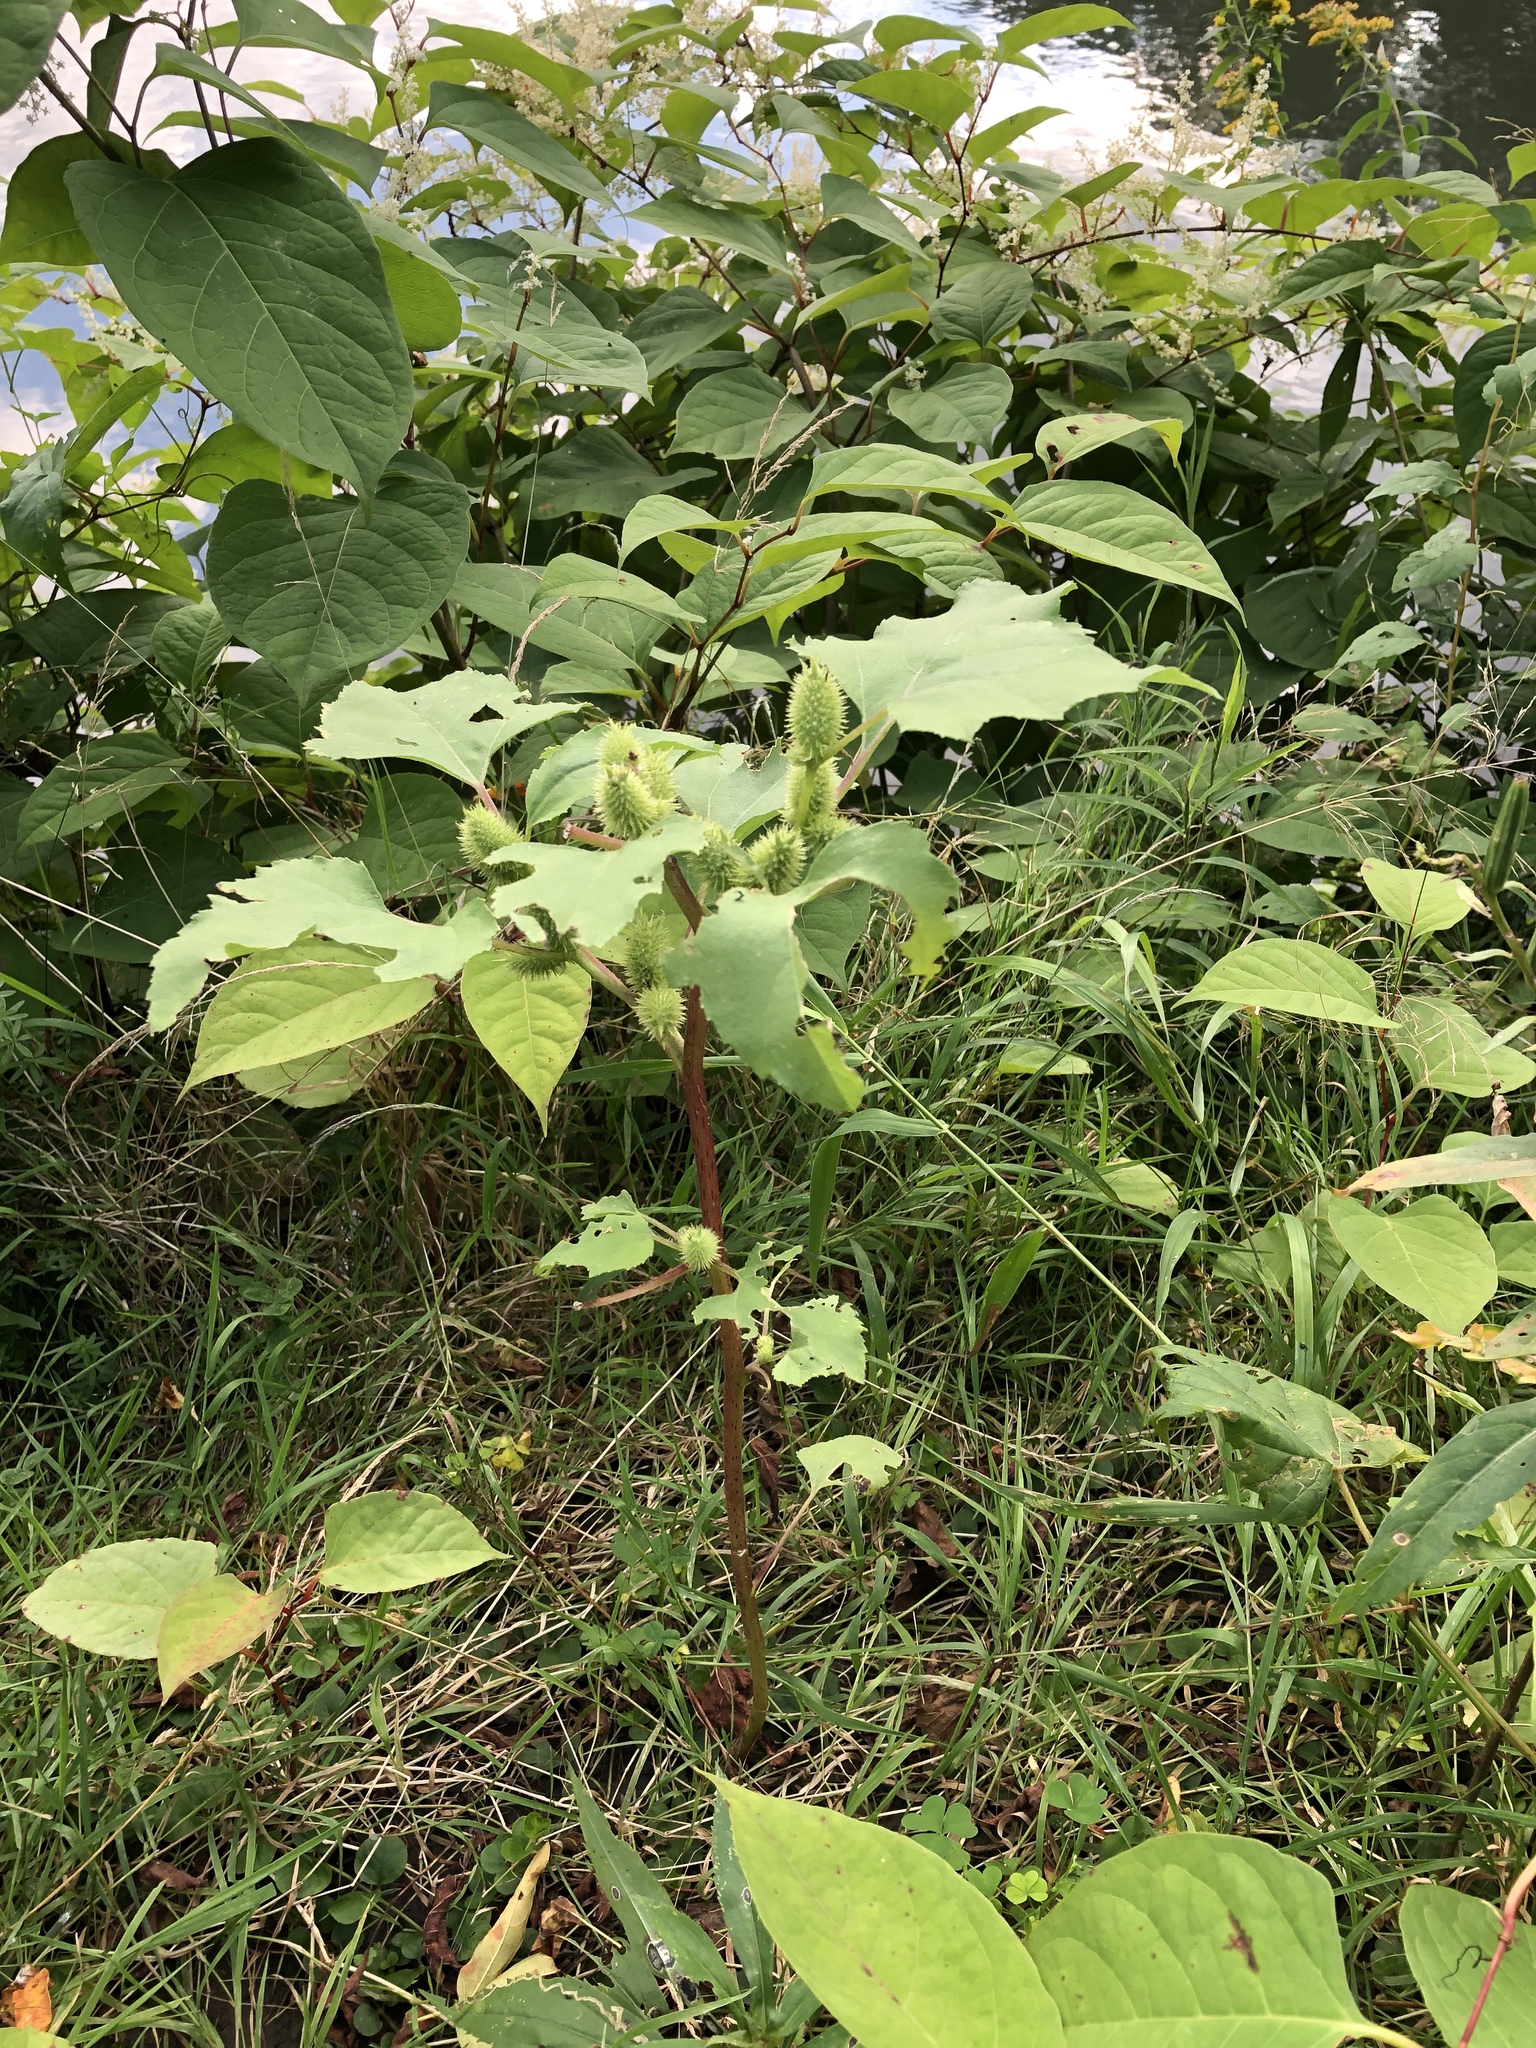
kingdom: Plantae
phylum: Tracheophyta
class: Magnoliopsida
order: Asterales
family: Asteraceae
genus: Xanthium
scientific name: Xanthium strumarium
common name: Rough cocklebur
